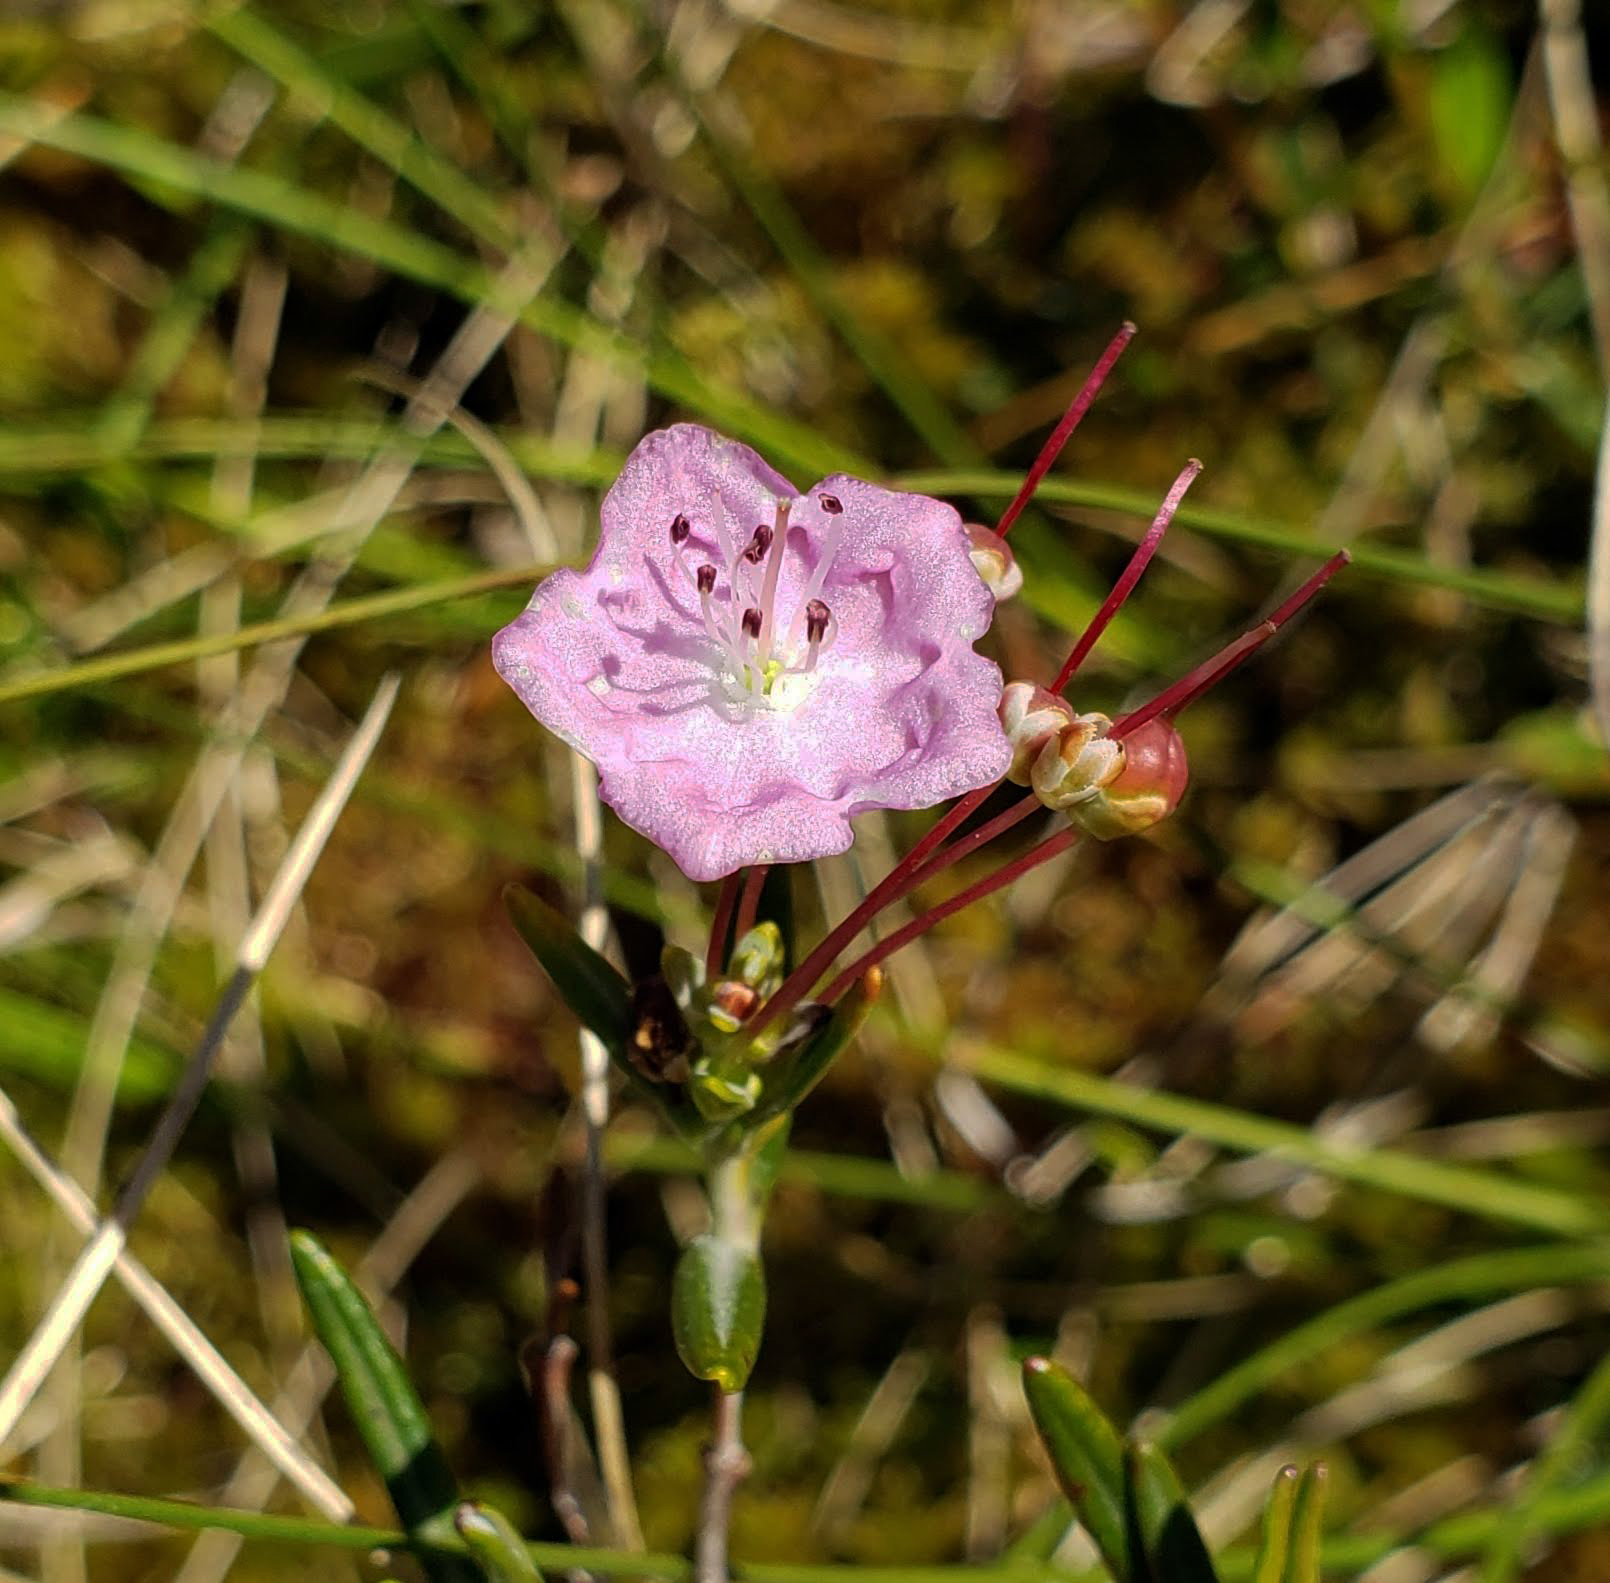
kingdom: Plantae
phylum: Tracheophyta
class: Magnoliopsida
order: Ericales
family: Ericaceae
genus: Kalmia
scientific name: Kalmia polifolia
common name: Bog-laurel
